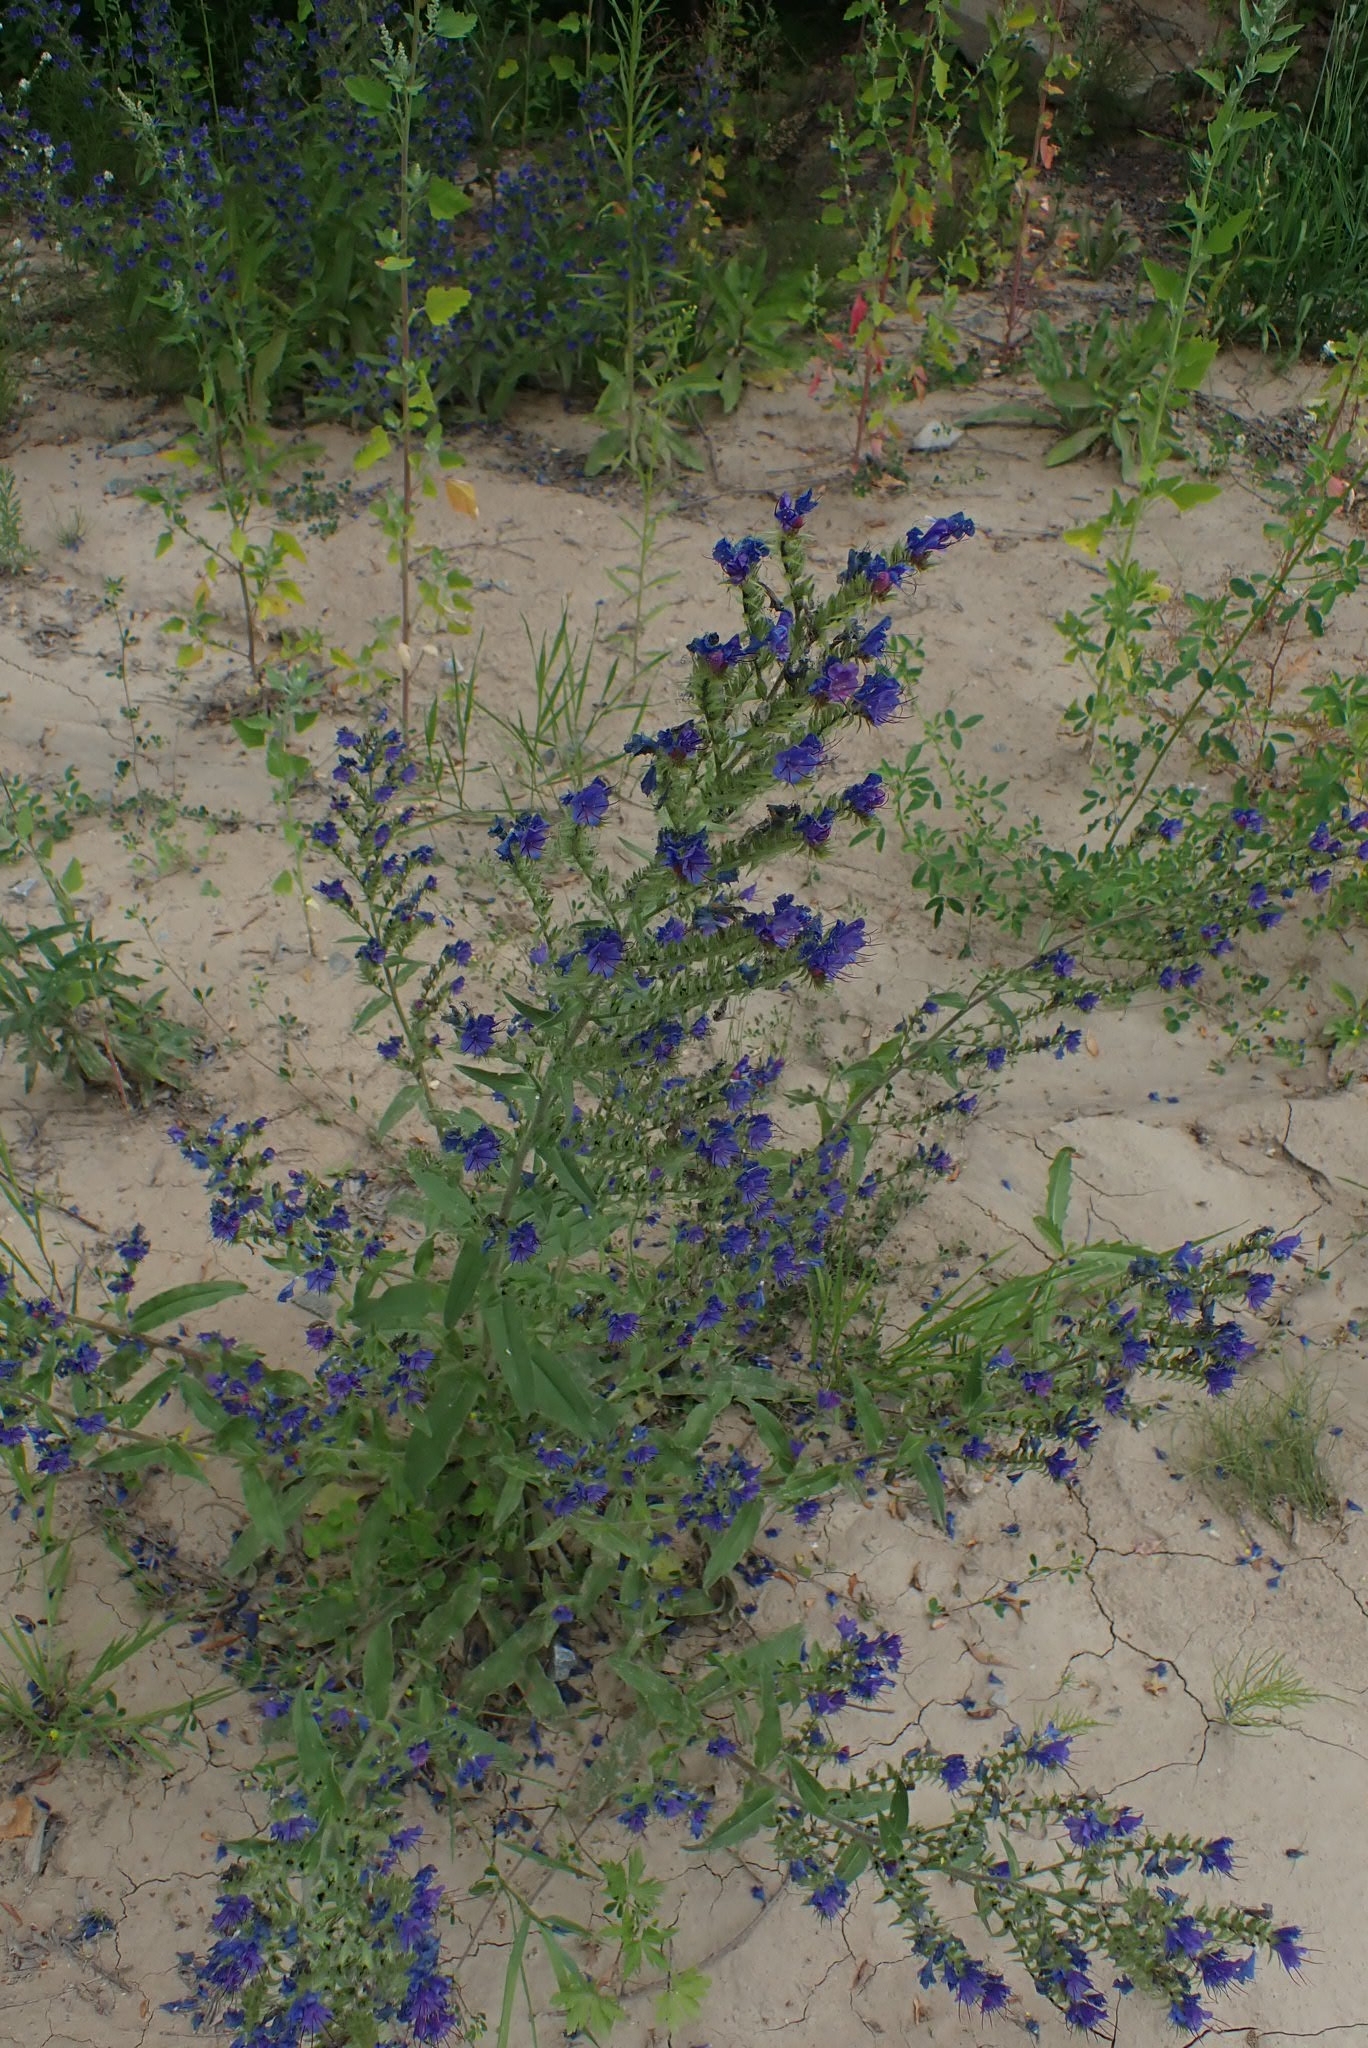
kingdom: Plantae
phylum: Tracheophyta
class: Magnoliopsida
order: Boraginales
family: Boraginaceae
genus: Echium
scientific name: Echium vulgare
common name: Common viper's bugloss
